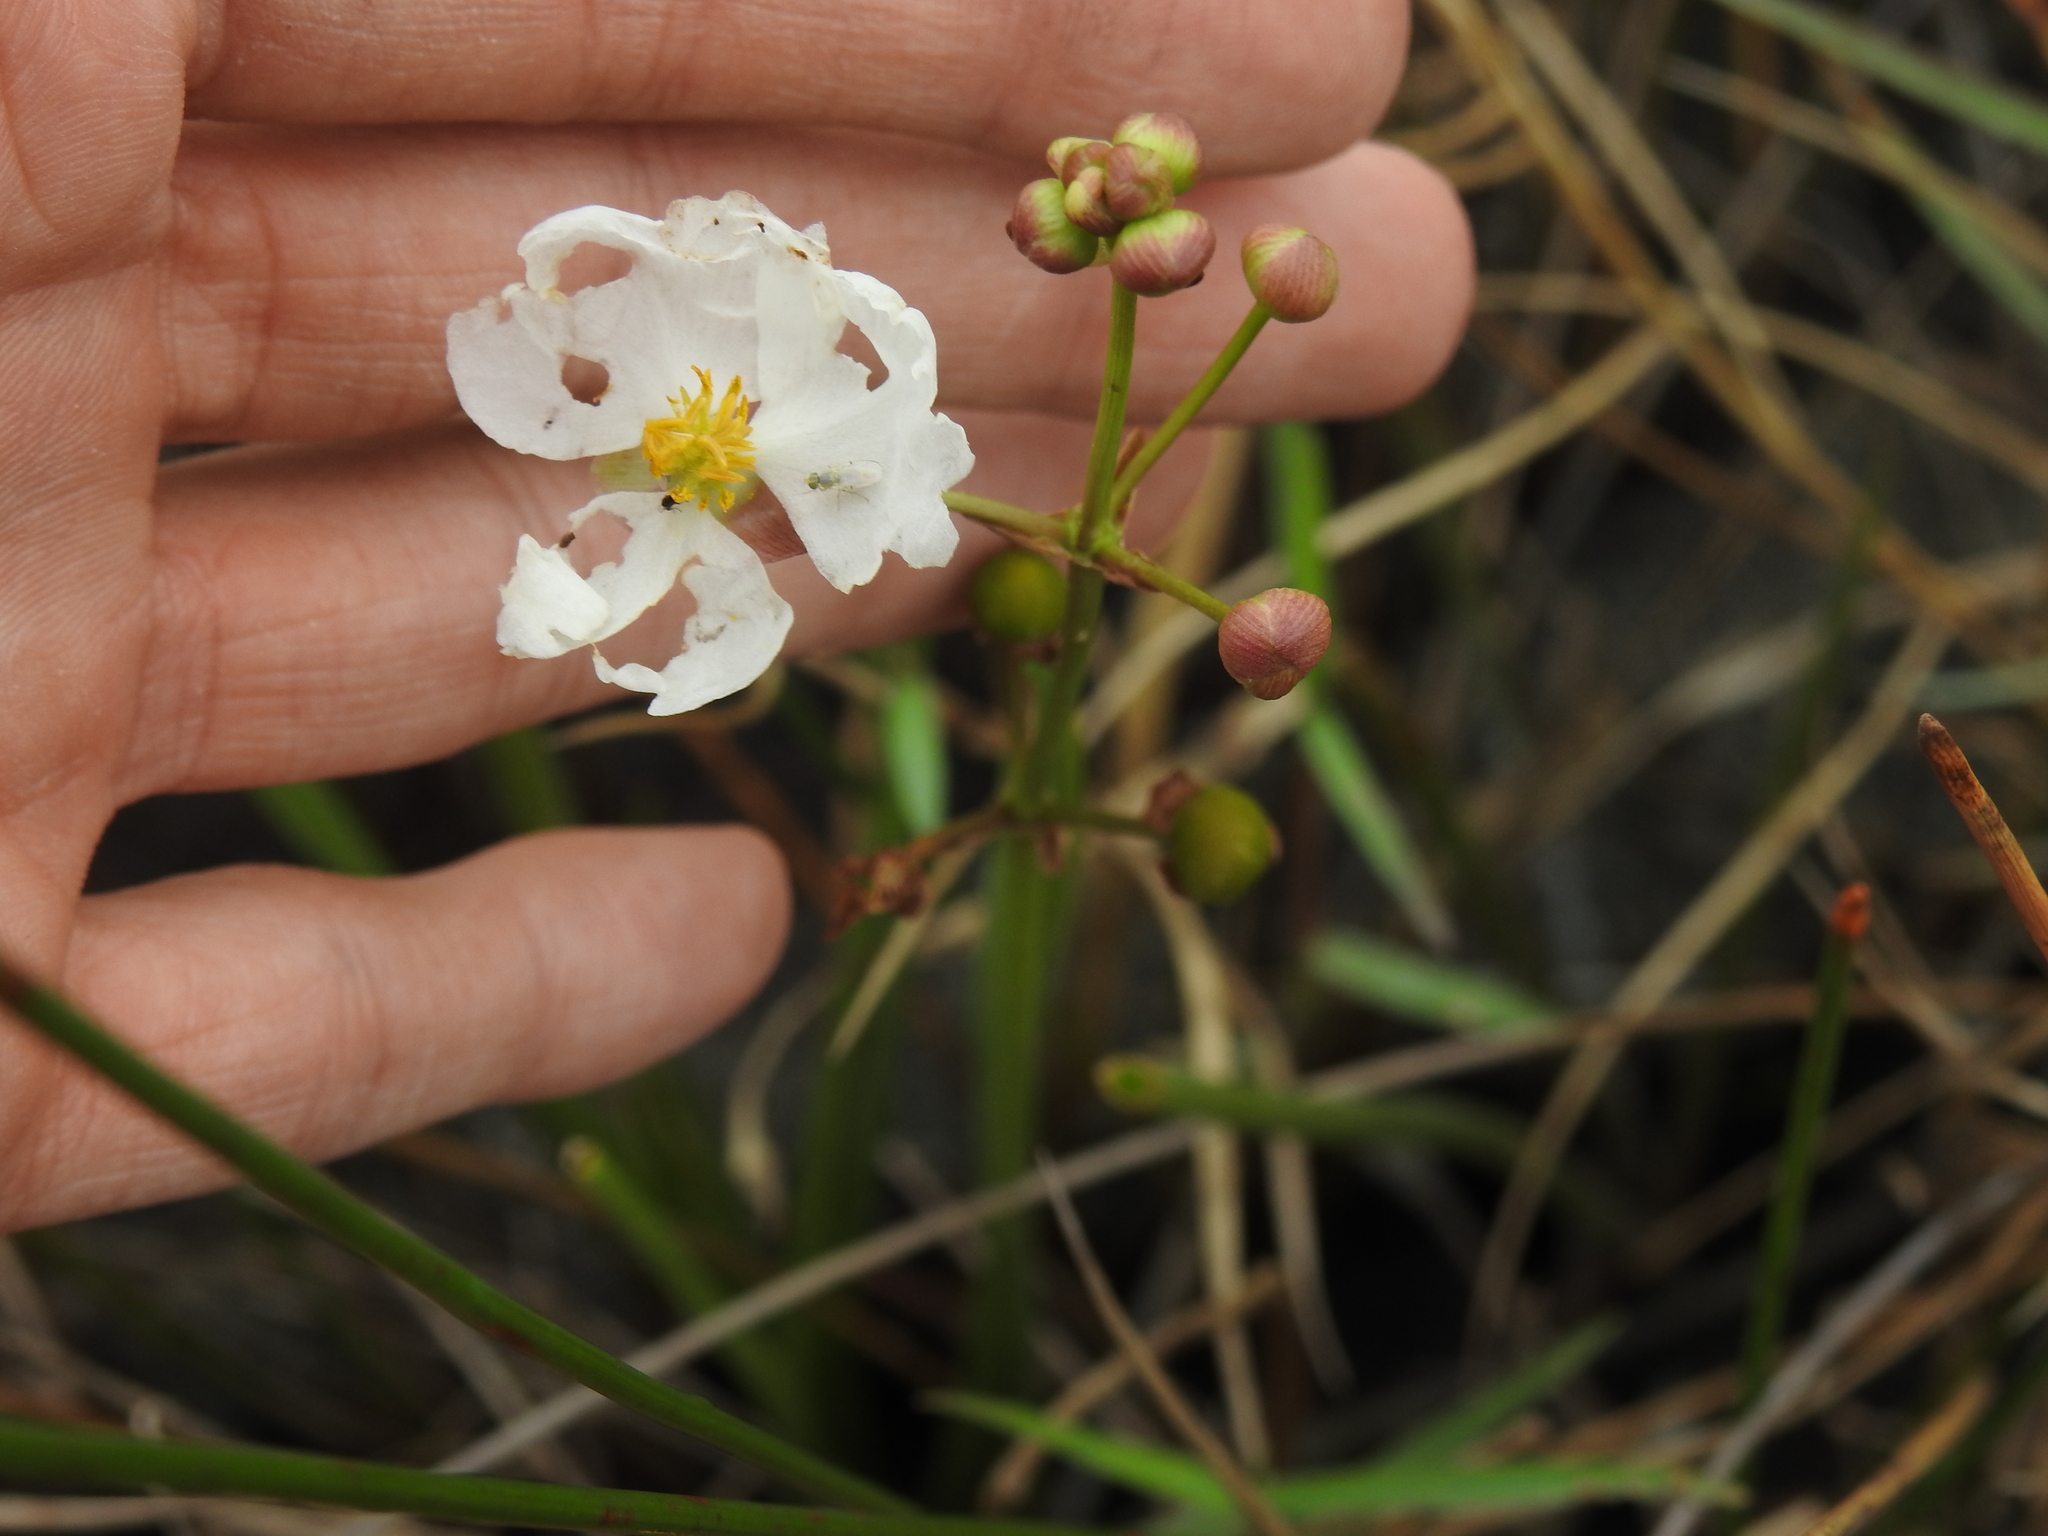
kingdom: Plantae
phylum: Tracheophyta
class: Liliopsida
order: Alismatales
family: Alismataceae
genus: Sagittaria
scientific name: Sagittaria lancifolia
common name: Lance-leaf arrowhead
